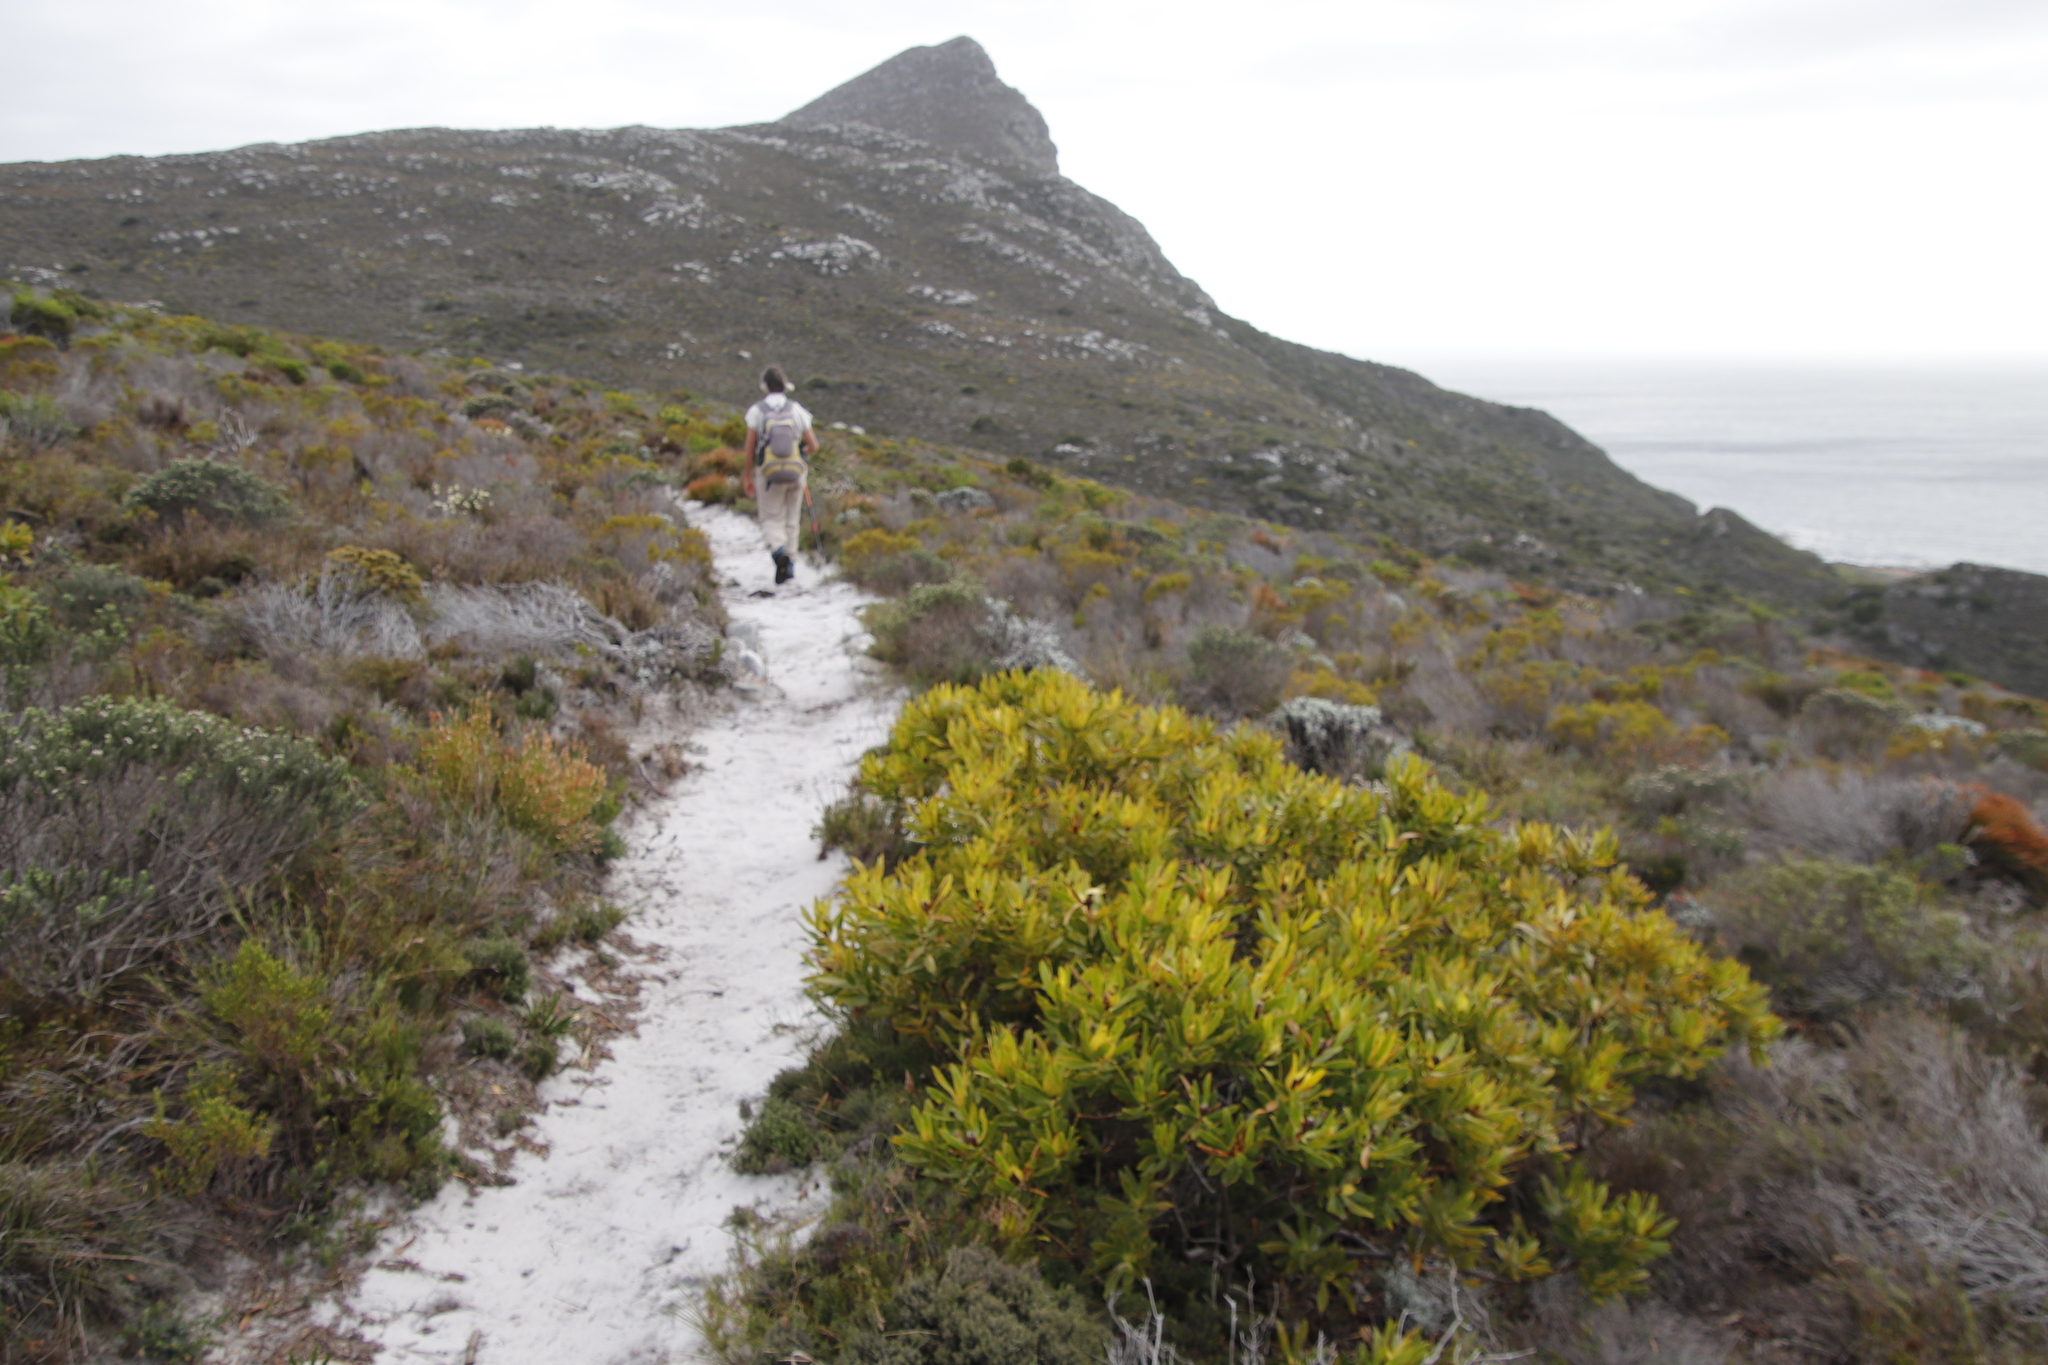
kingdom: Plantae
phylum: Tracheophyta
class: Magnoliopsida
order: Proteales
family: Proteaceae
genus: Leucadendron
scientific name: Leucadendron laureolum
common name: Golden sunshinebush
